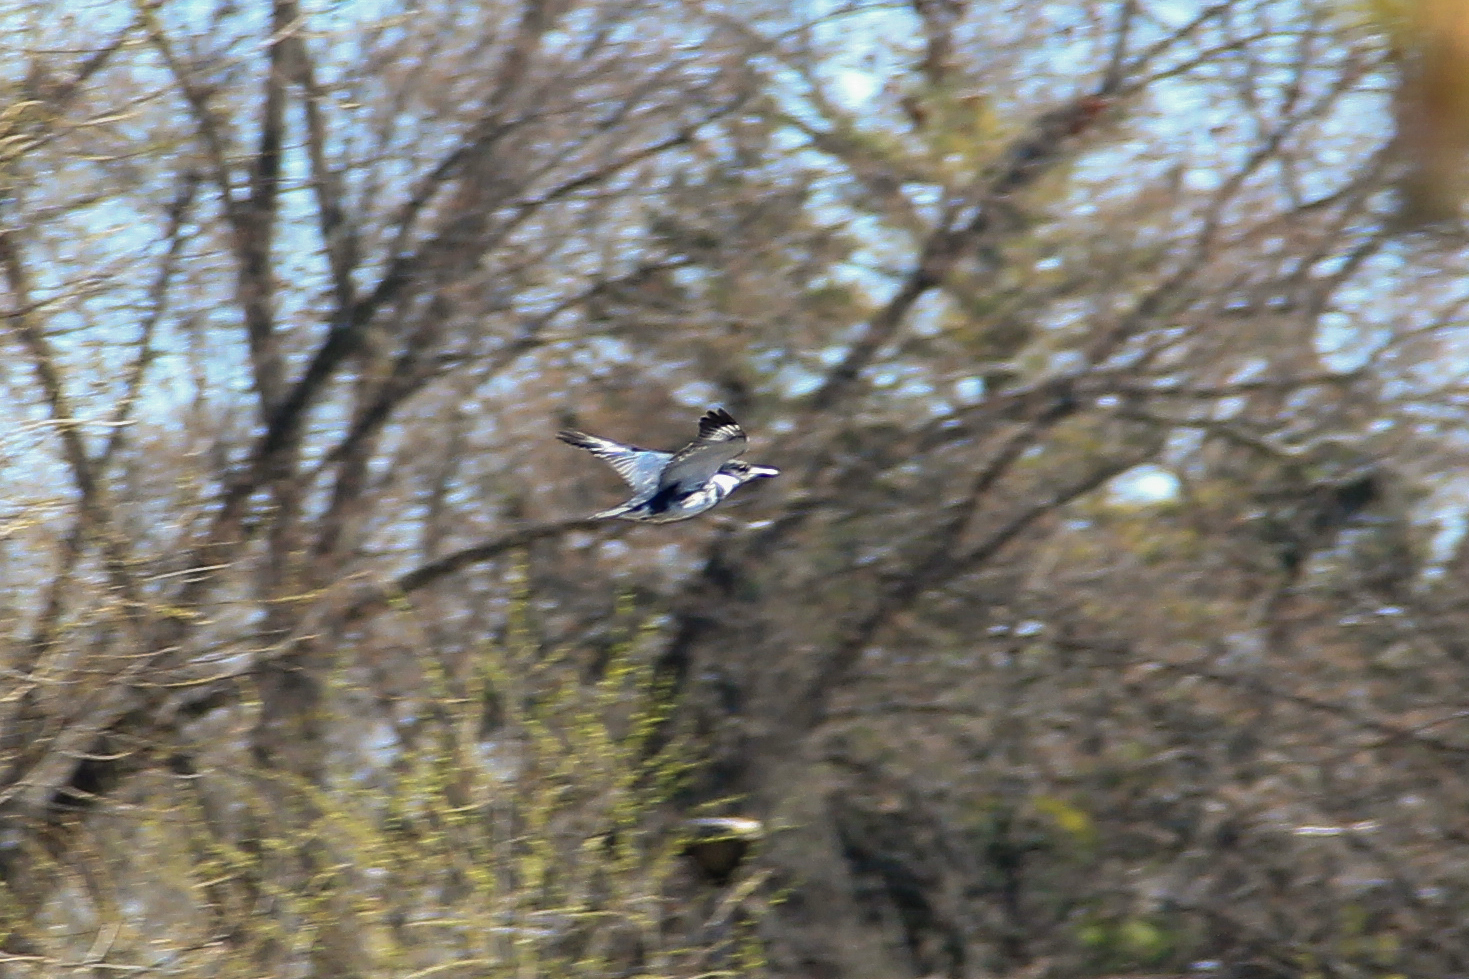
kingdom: Animalia
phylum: Chordata
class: Aves
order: Coraciiformes
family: Alcedinidae
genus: Megaceryle
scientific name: Megaceryle alcyon
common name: Belted kingfisher
